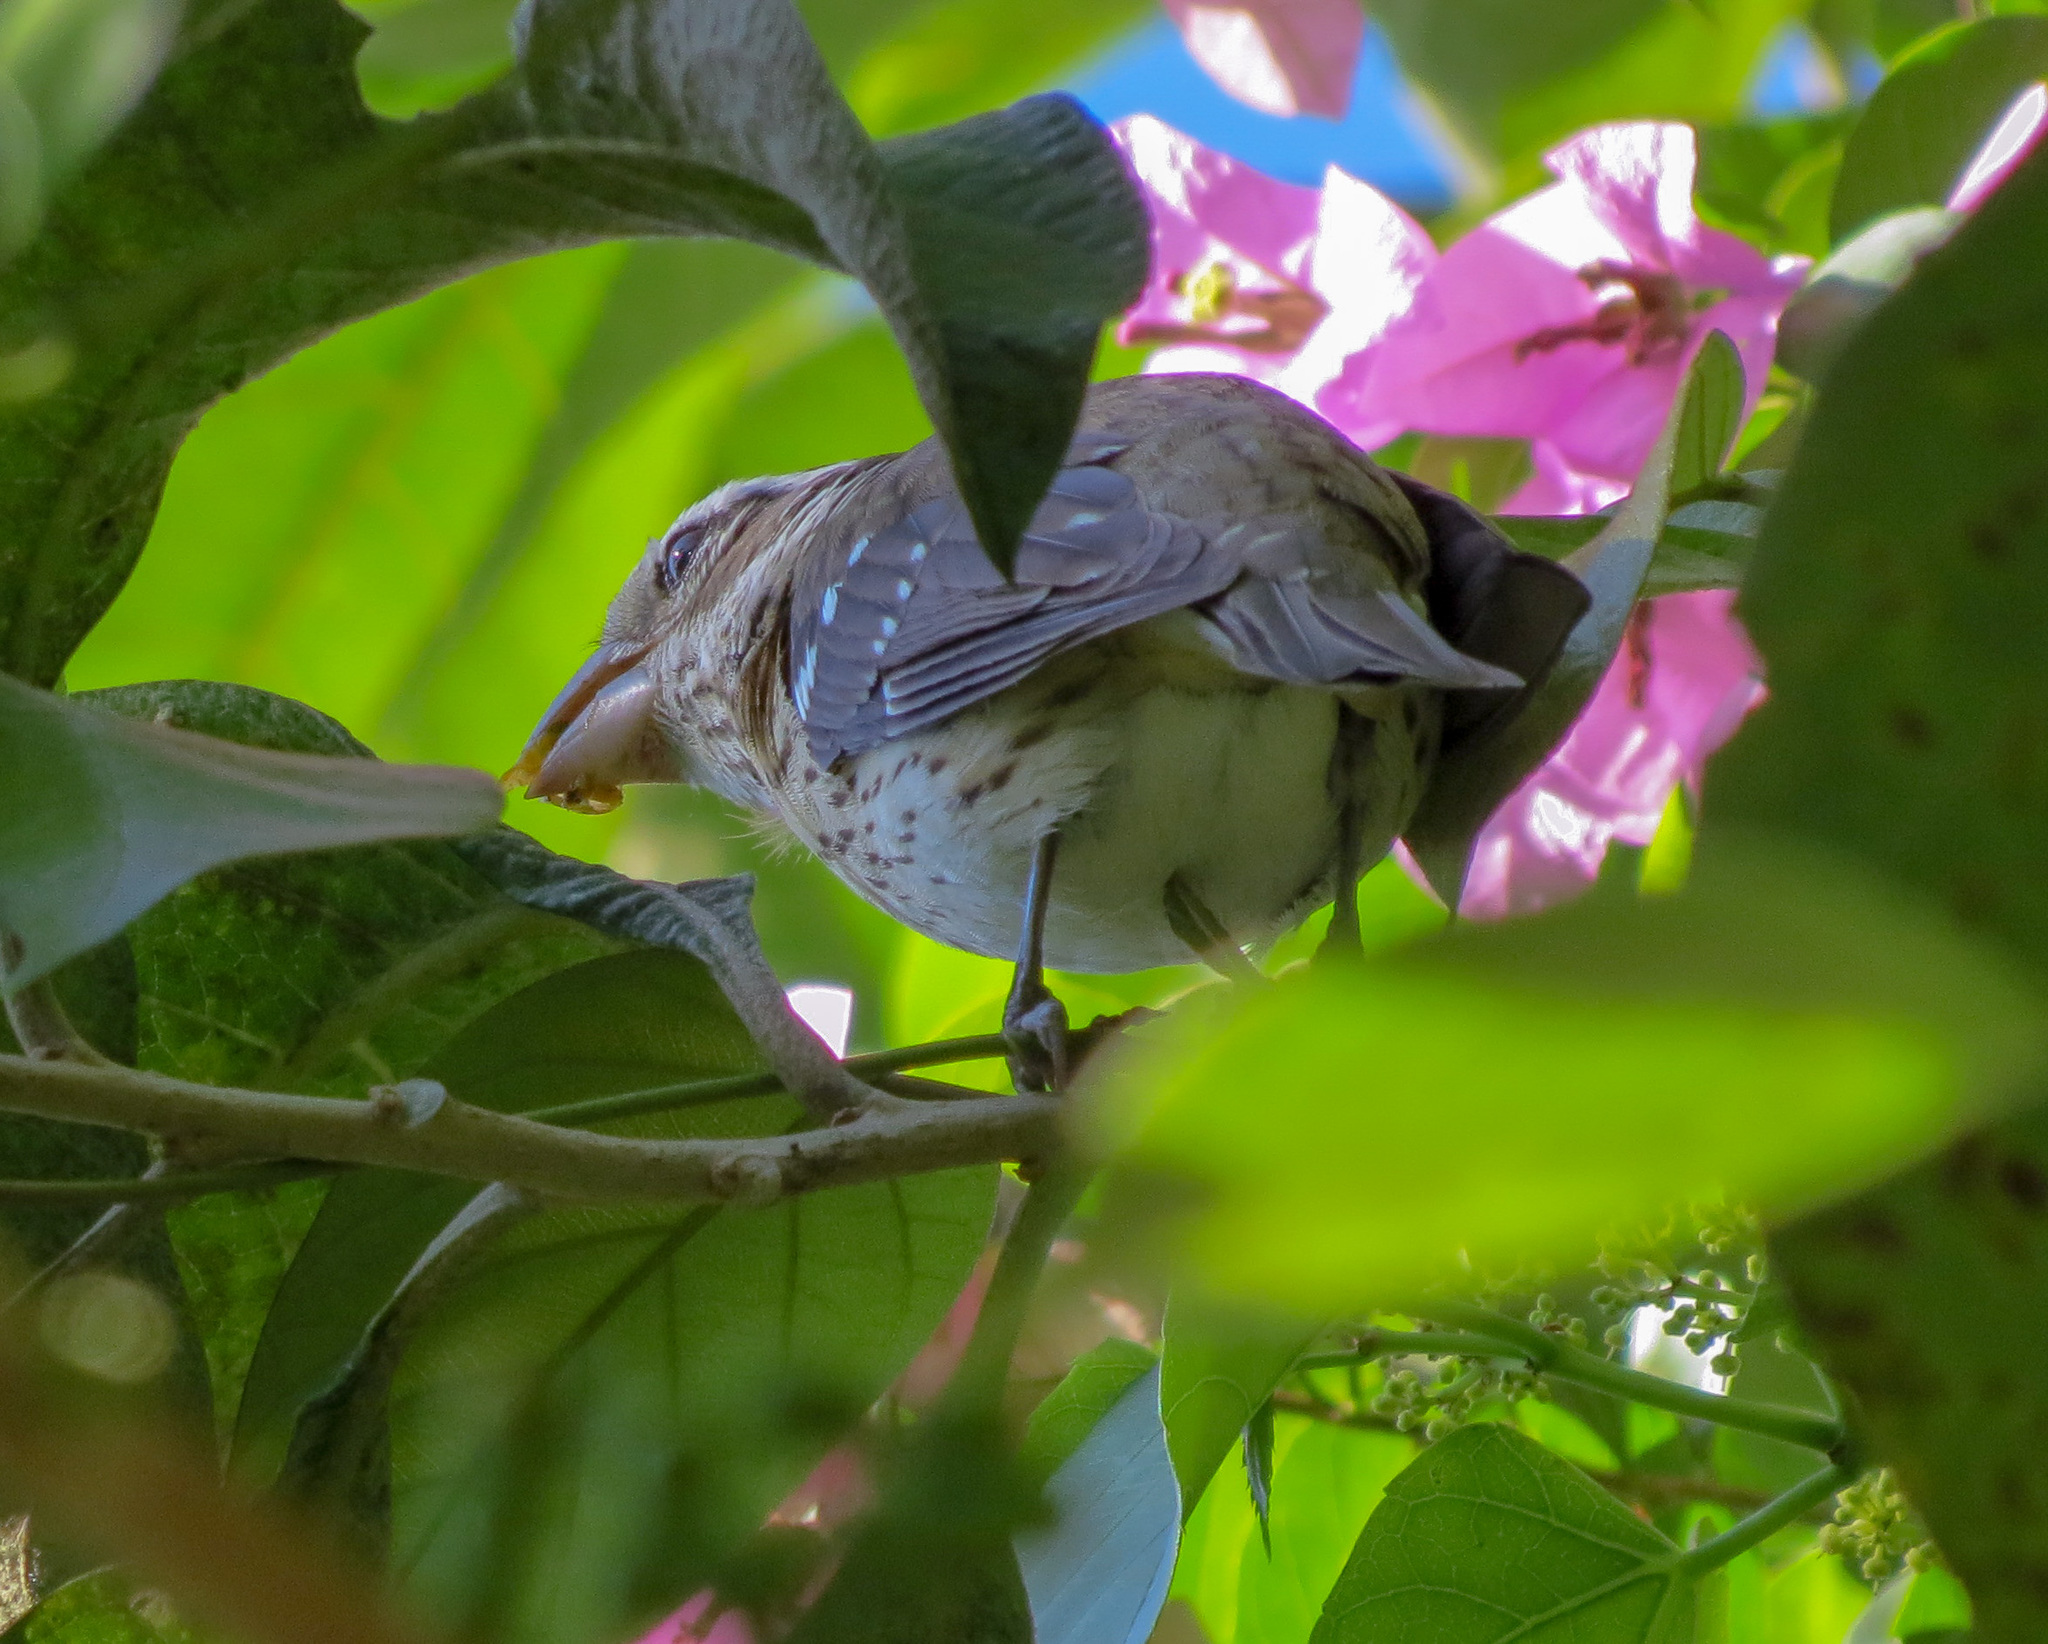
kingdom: Animalia
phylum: Chordata
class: Aves
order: Passeriformes
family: Cardinalidae
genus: Pheucticus
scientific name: Pheucticus ludovicianus
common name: Rose-breasted grosbeak
